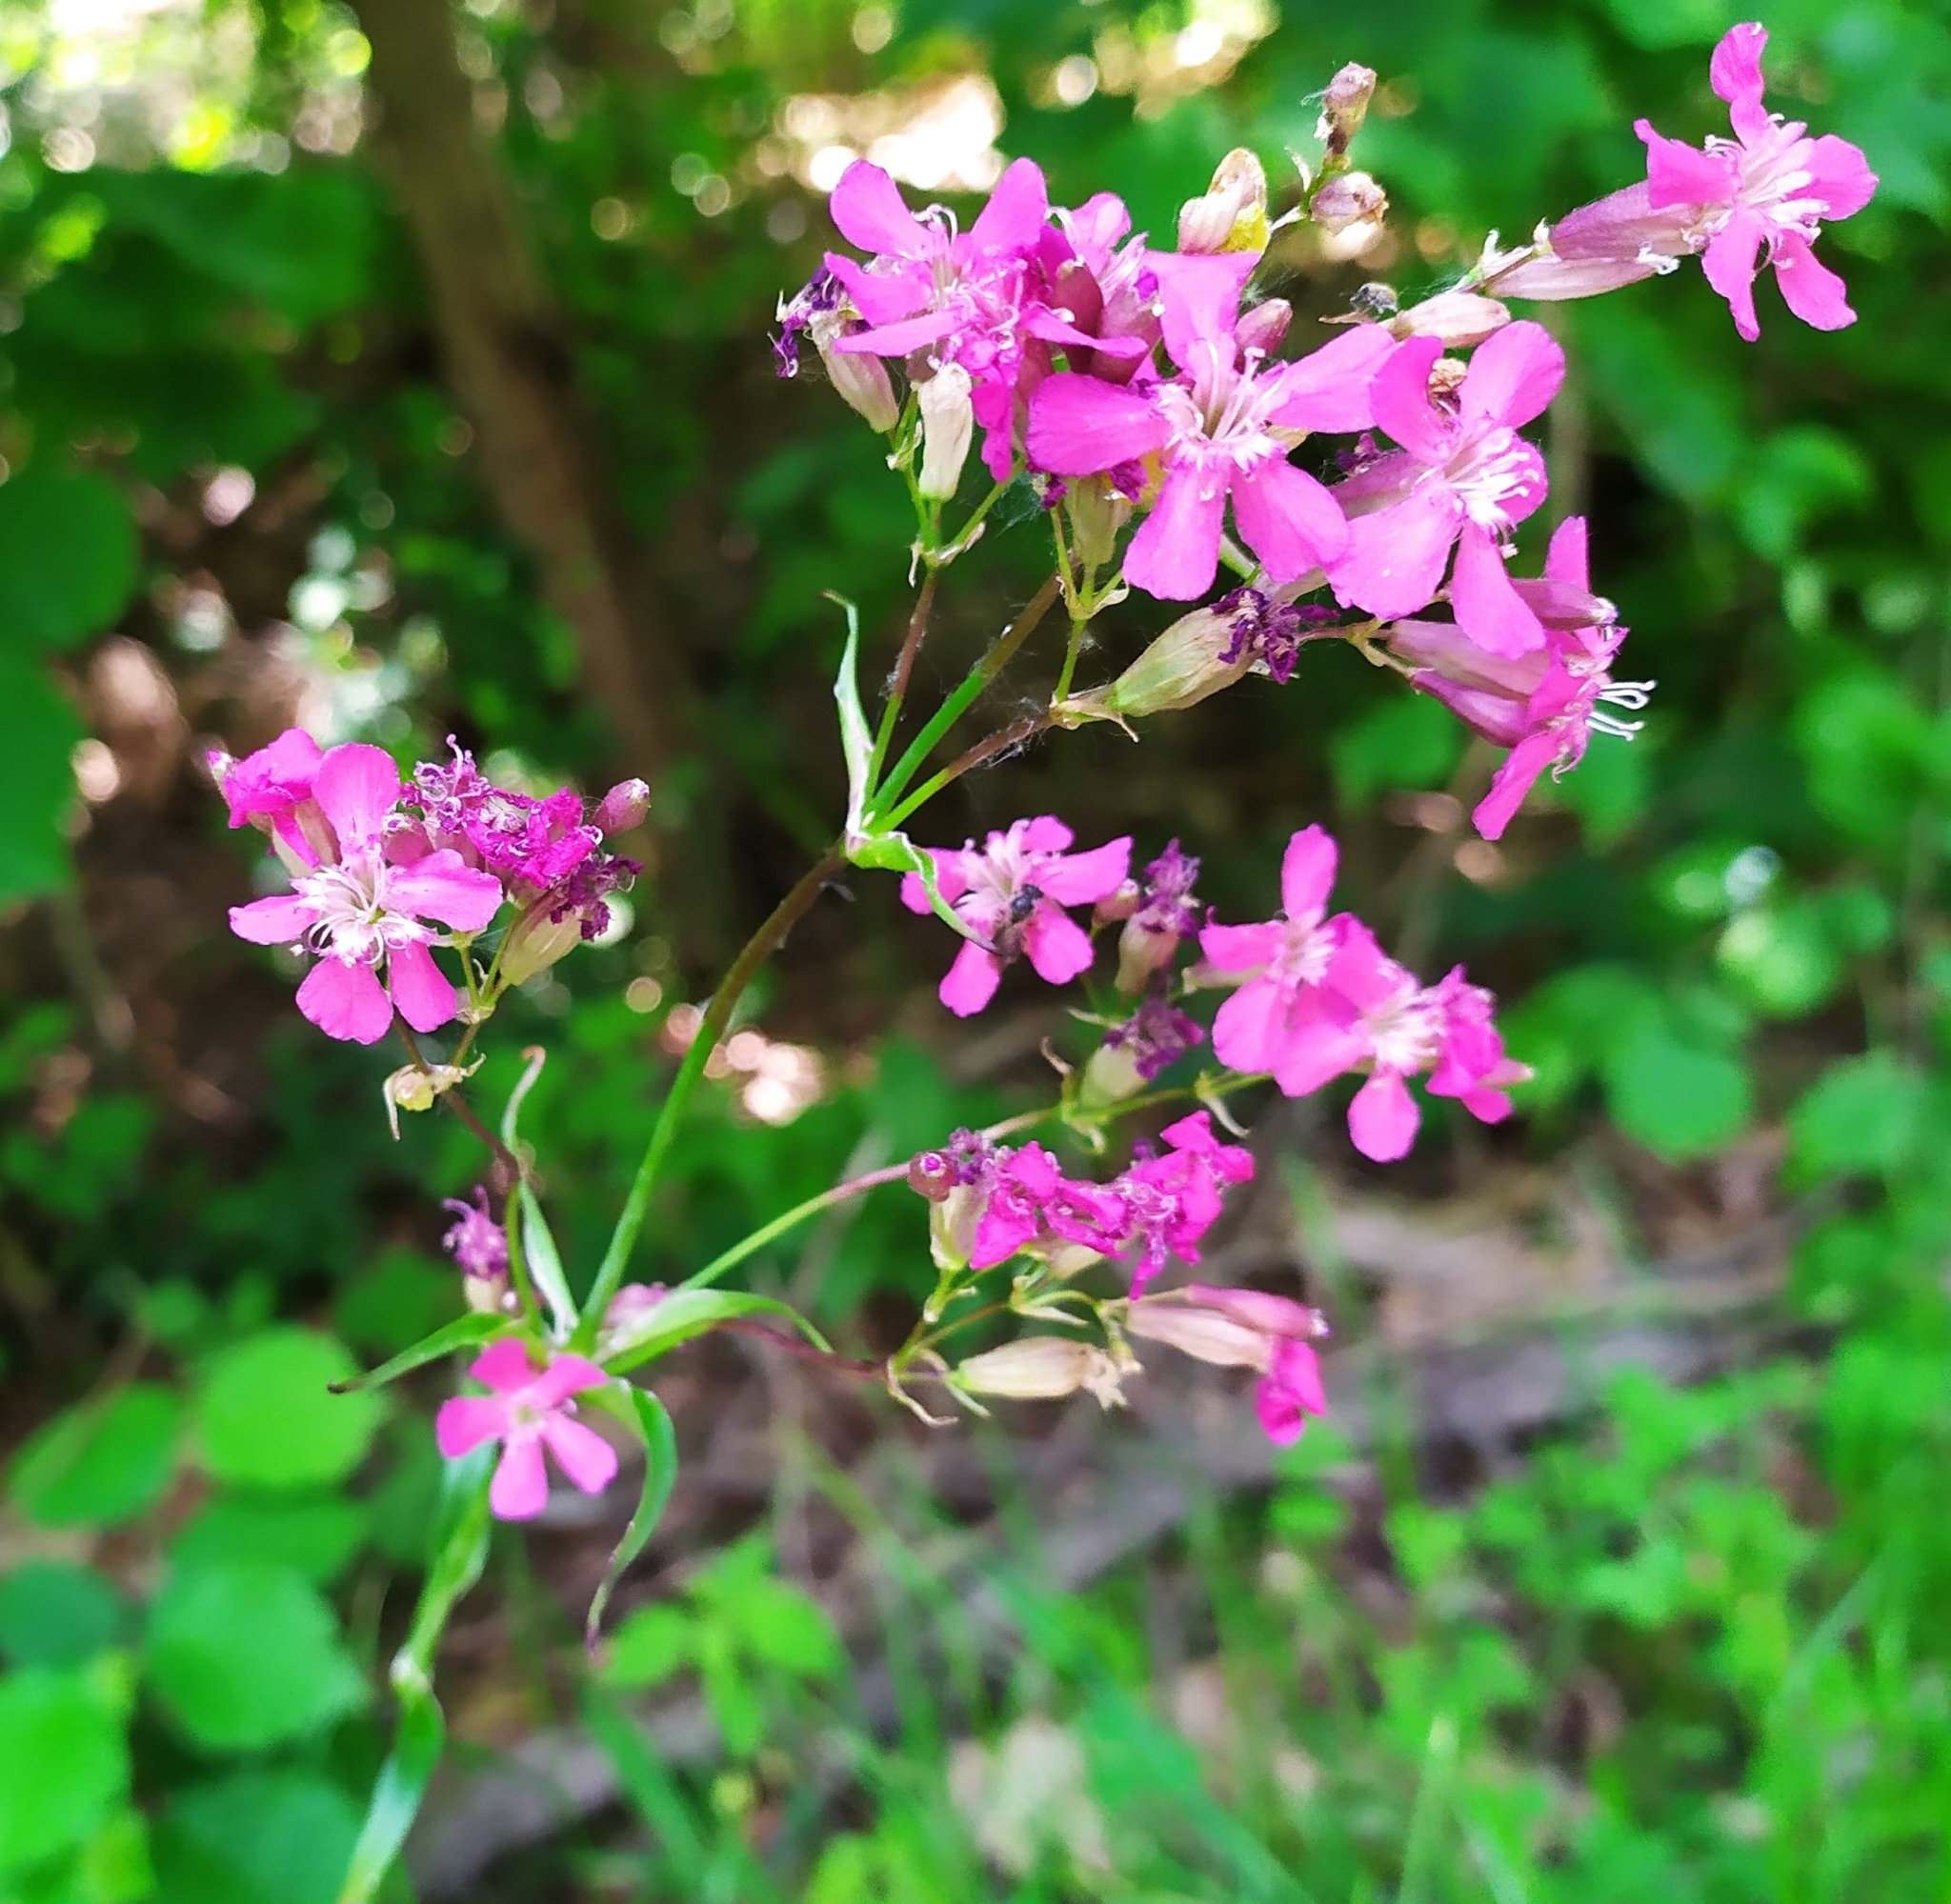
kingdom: Plantae
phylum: Tracheophyta
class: Magnoliopsida
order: Caryophyllales
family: Caryophyllaceae
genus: Viscaria
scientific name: Viscaria vulgaris
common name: Clammy campion
